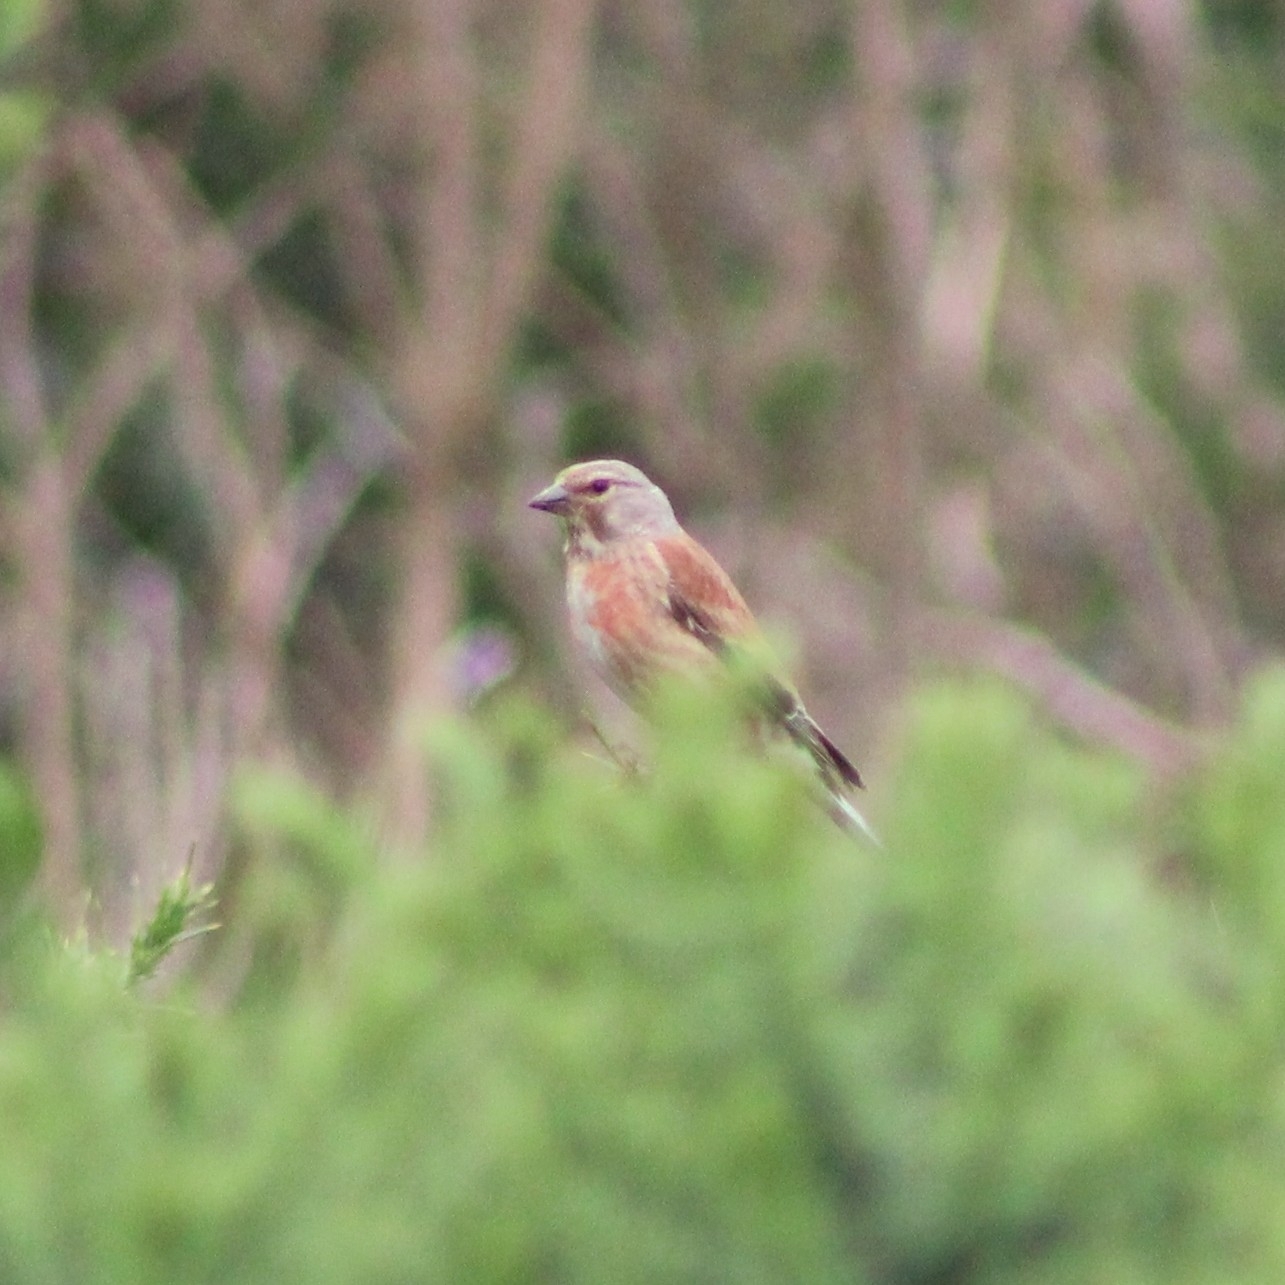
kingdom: Animalia
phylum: Chordata
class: Aves
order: Passeriformes
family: Fringillidae
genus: Linaria
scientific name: Linaria cannabina
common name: Common linnet
